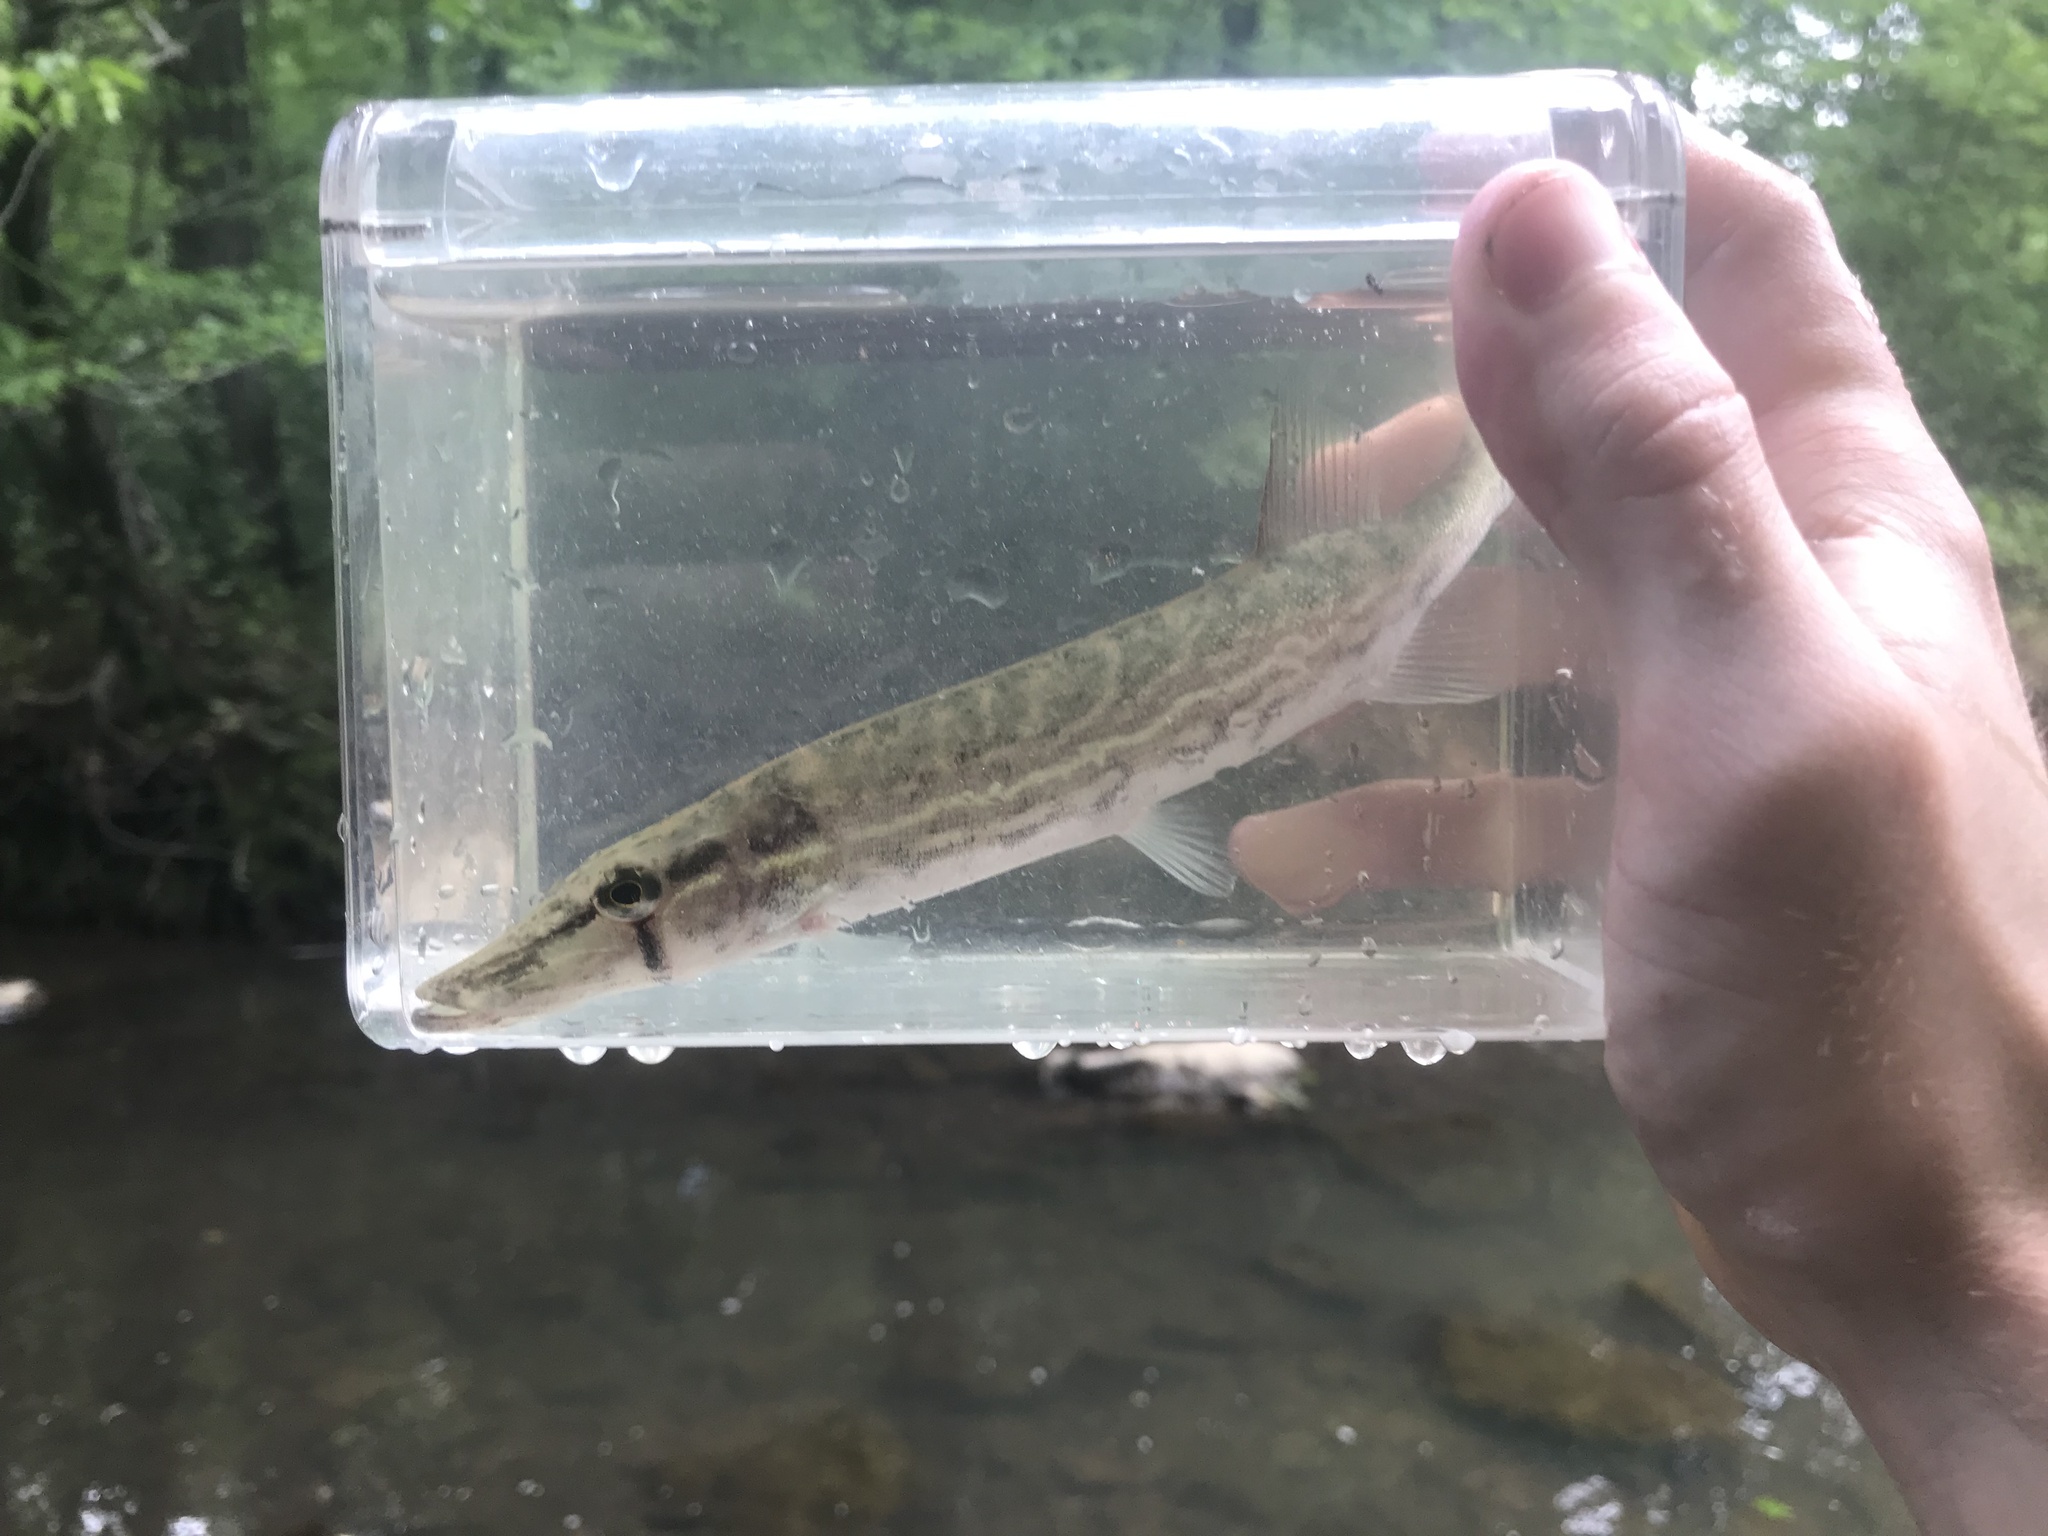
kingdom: Animalia
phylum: Chordata
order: Esociformes
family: Esocidae
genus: Esox
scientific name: Esox niger
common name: Chain pickerel
